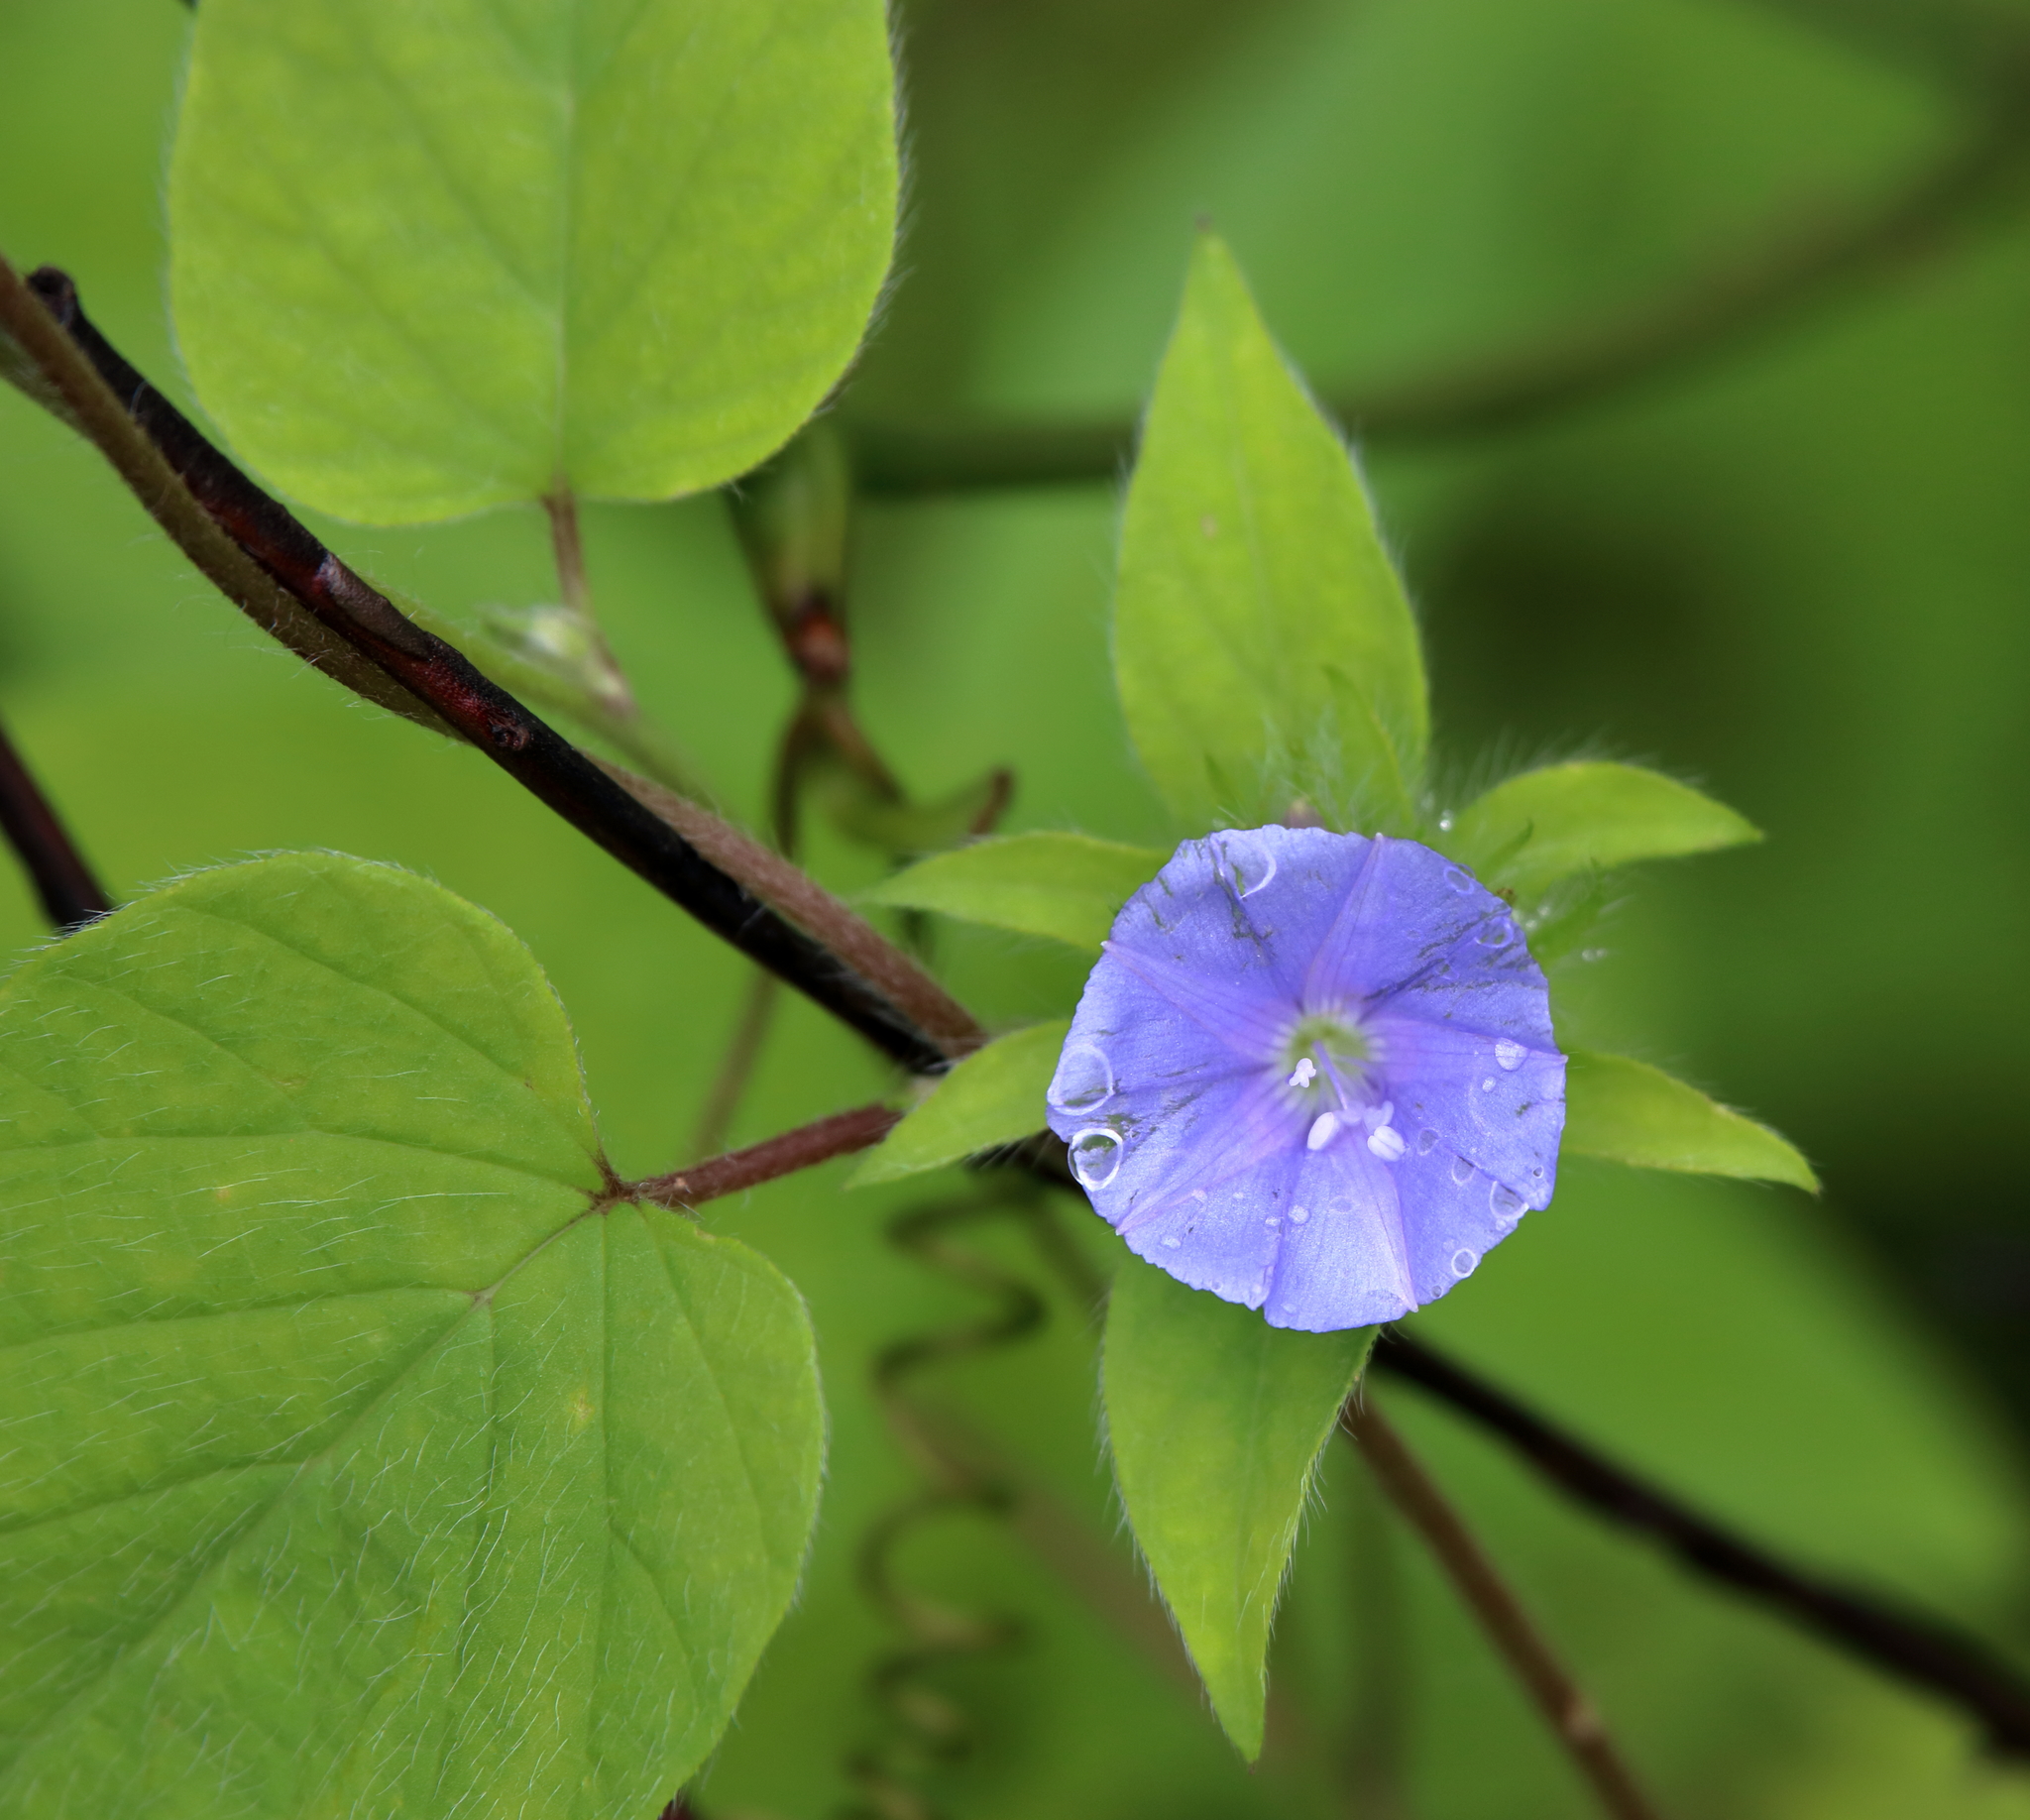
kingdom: Plantae
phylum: Tracheophyta
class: Magnoliopsida
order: Solanales
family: Convolvulaceae
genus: Jacquemontia
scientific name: Jacquemontia tamnifolia
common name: Hairy clustervine
